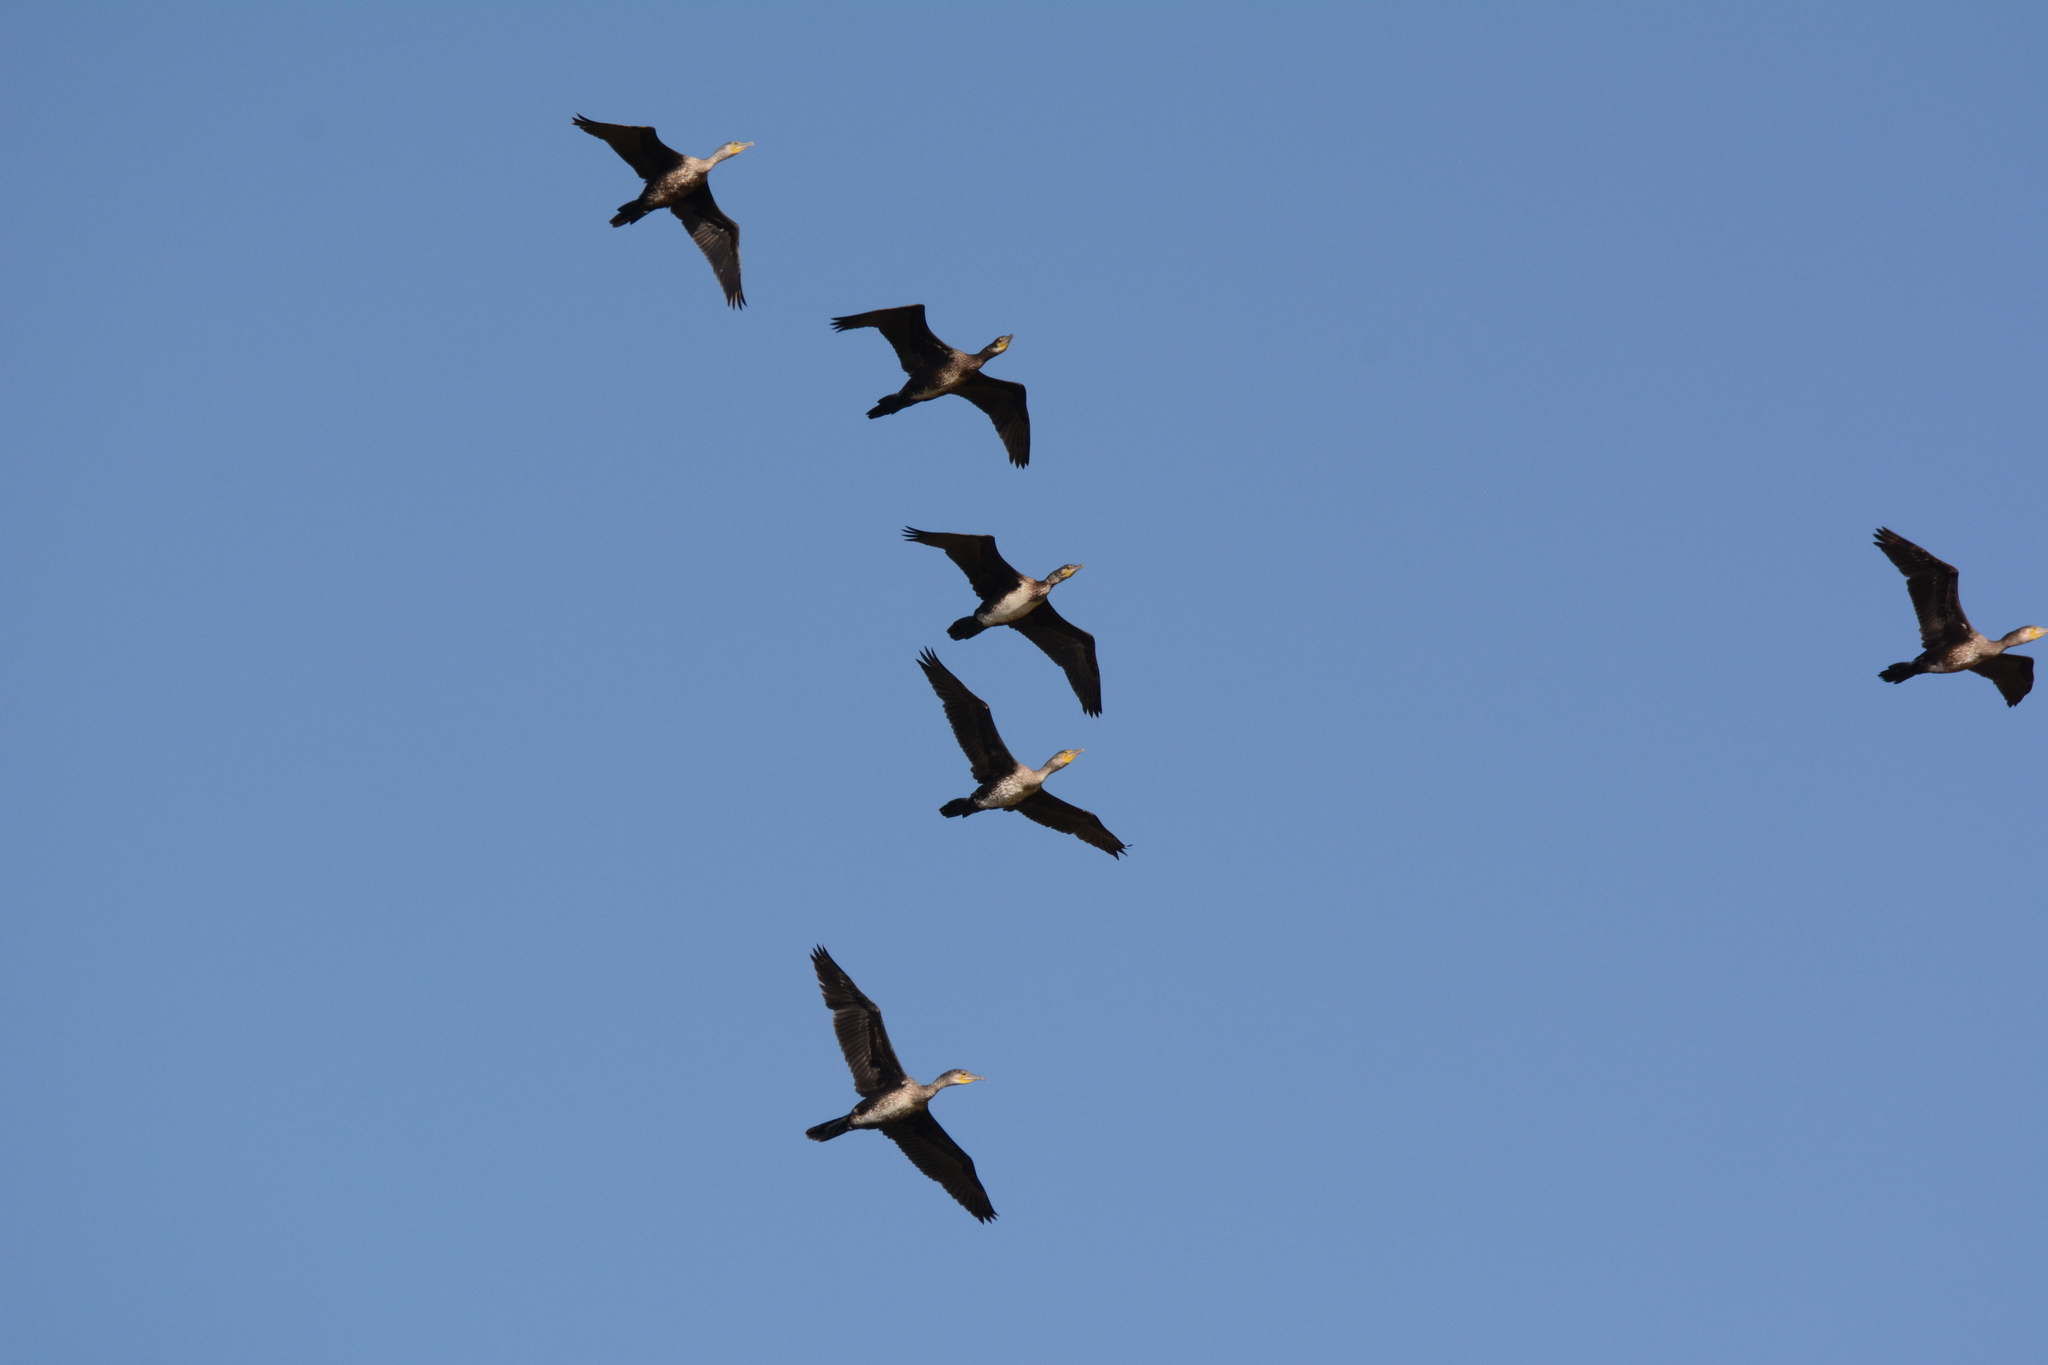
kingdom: Animalia
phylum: Chordata
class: Aves
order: Suliformes
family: Phalacrocoracidae
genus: Phalacrocorax
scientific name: Phalacrocorax carbo
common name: Great cormorant
